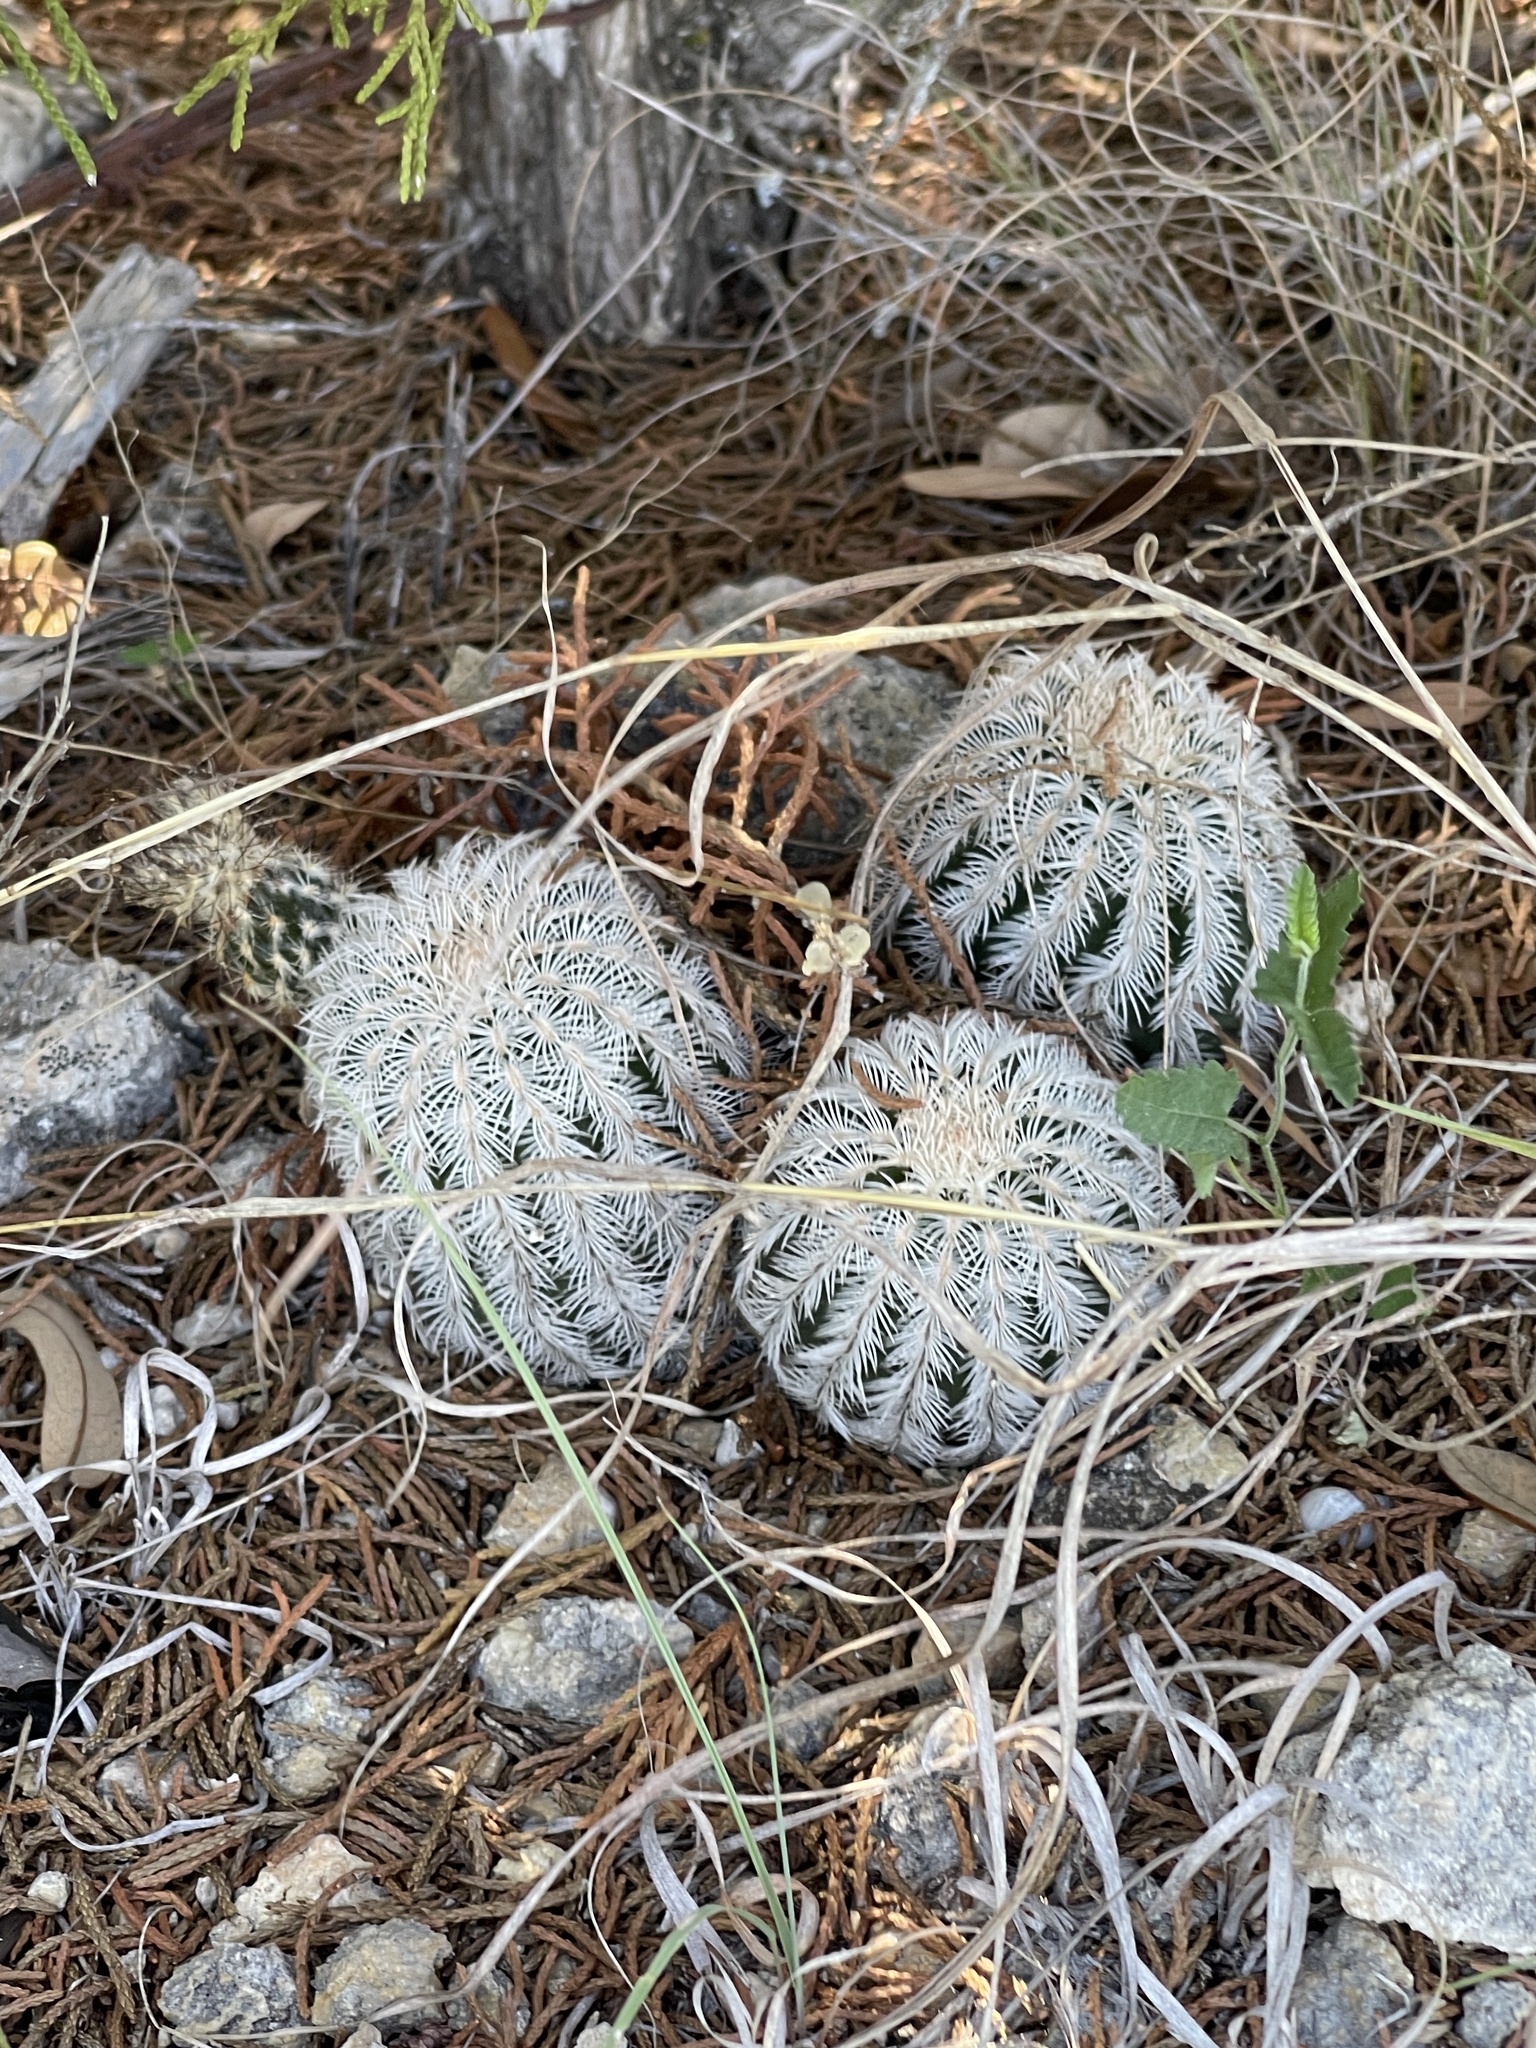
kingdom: Plantae
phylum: Tracheophyta
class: Magnoliopsida
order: Caryophyllales
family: Cactaceae
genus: Echinocereus
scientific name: Echinocereus reichenbachii
